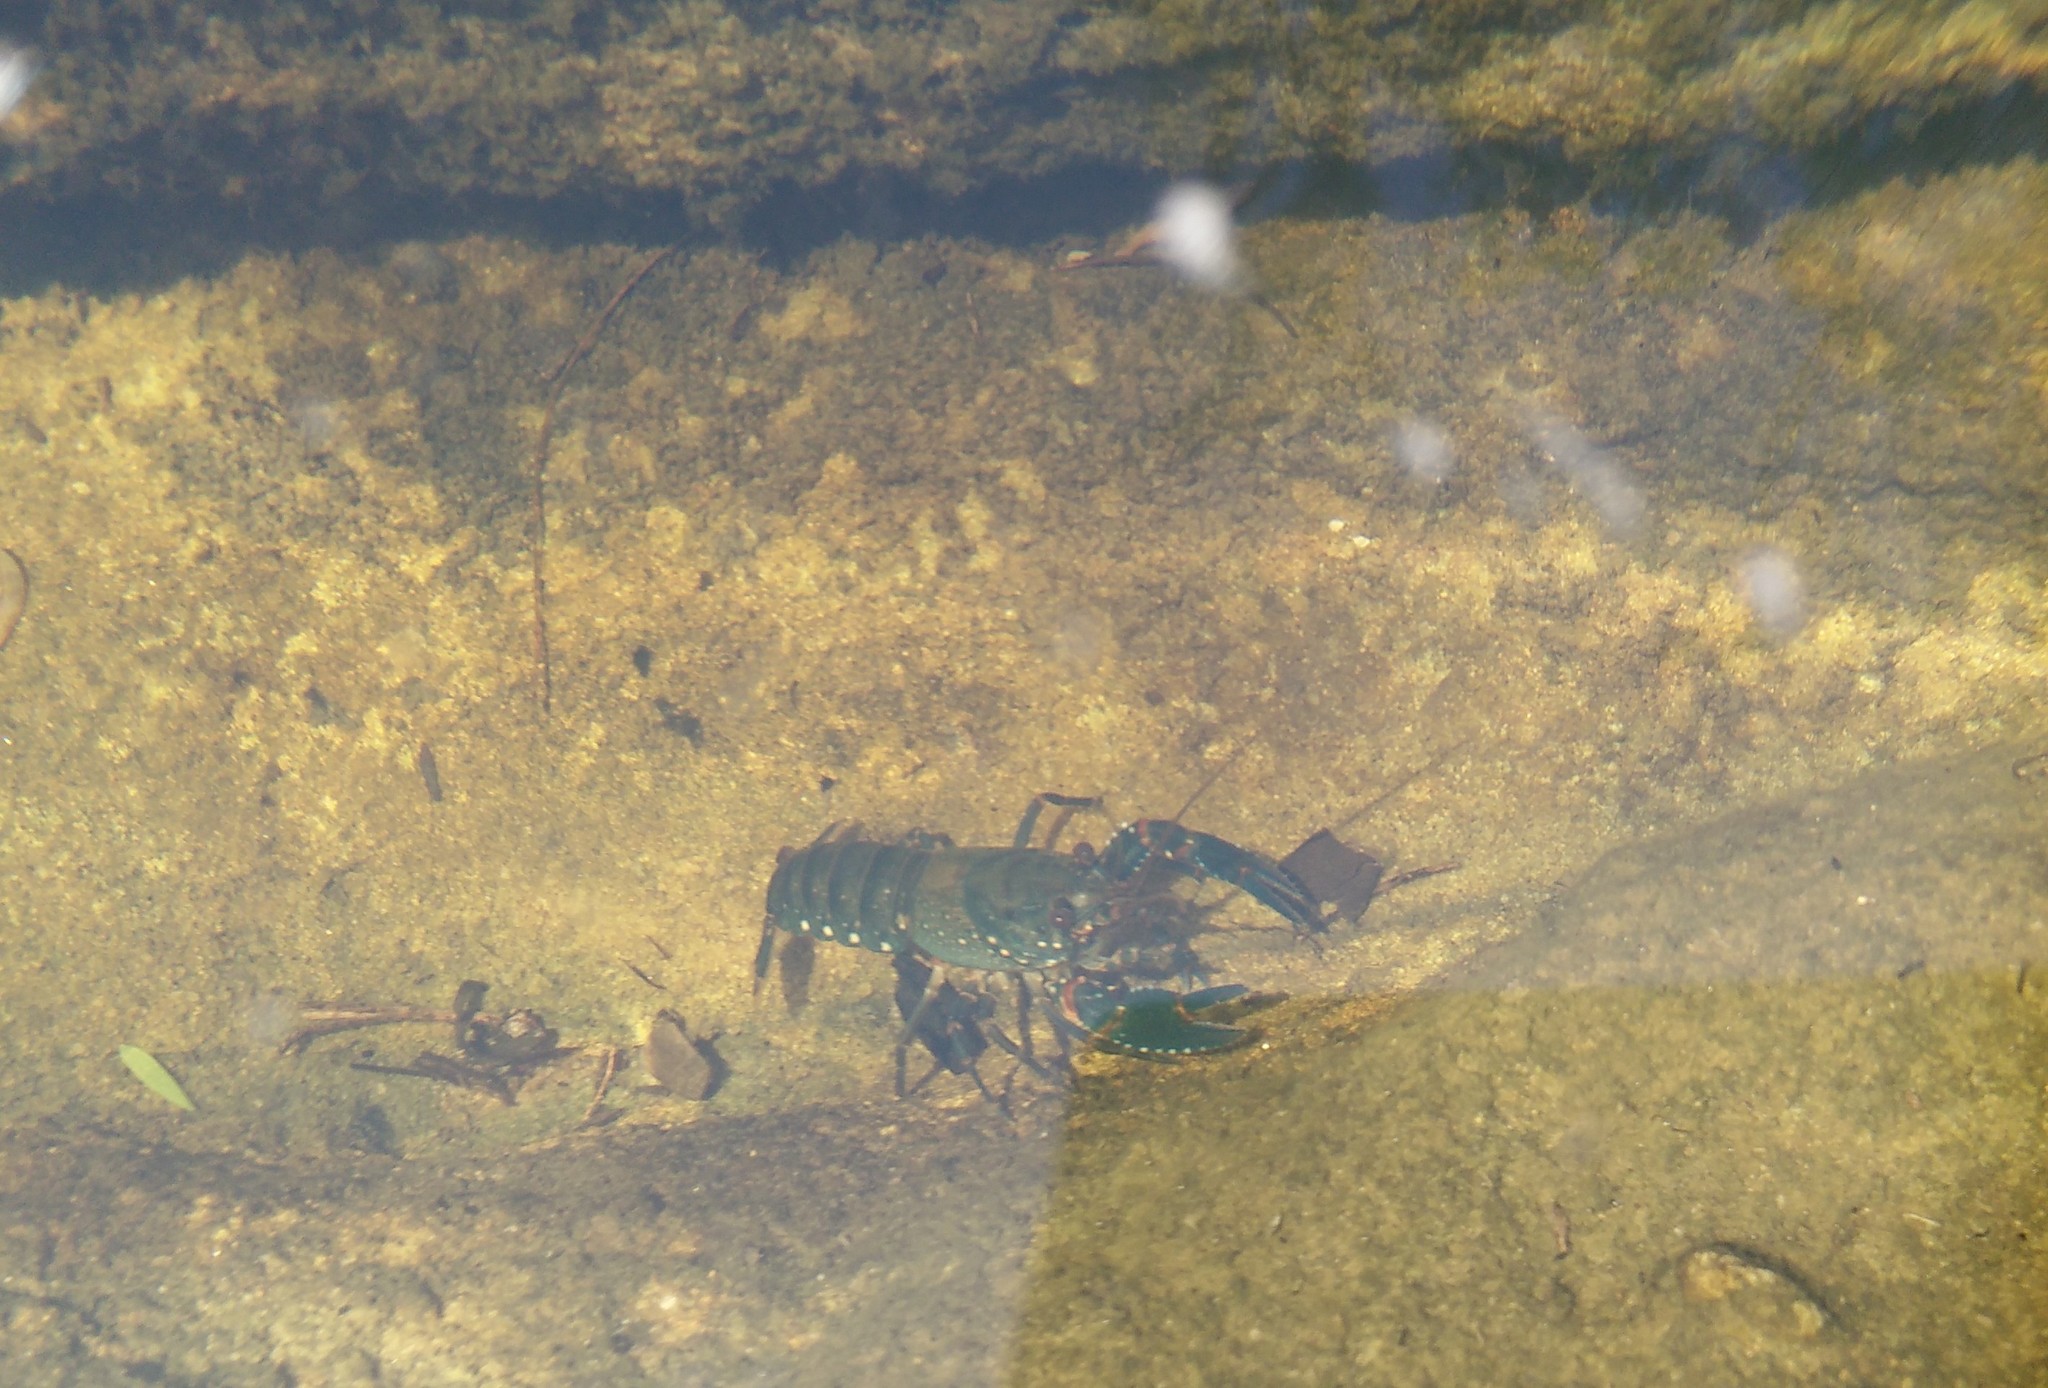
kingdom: Animalia
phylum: Arthropoda
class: Malacostraca
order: Decapoda
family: Parastacidae
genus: Euastacus
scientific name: Euastacus spinifer
